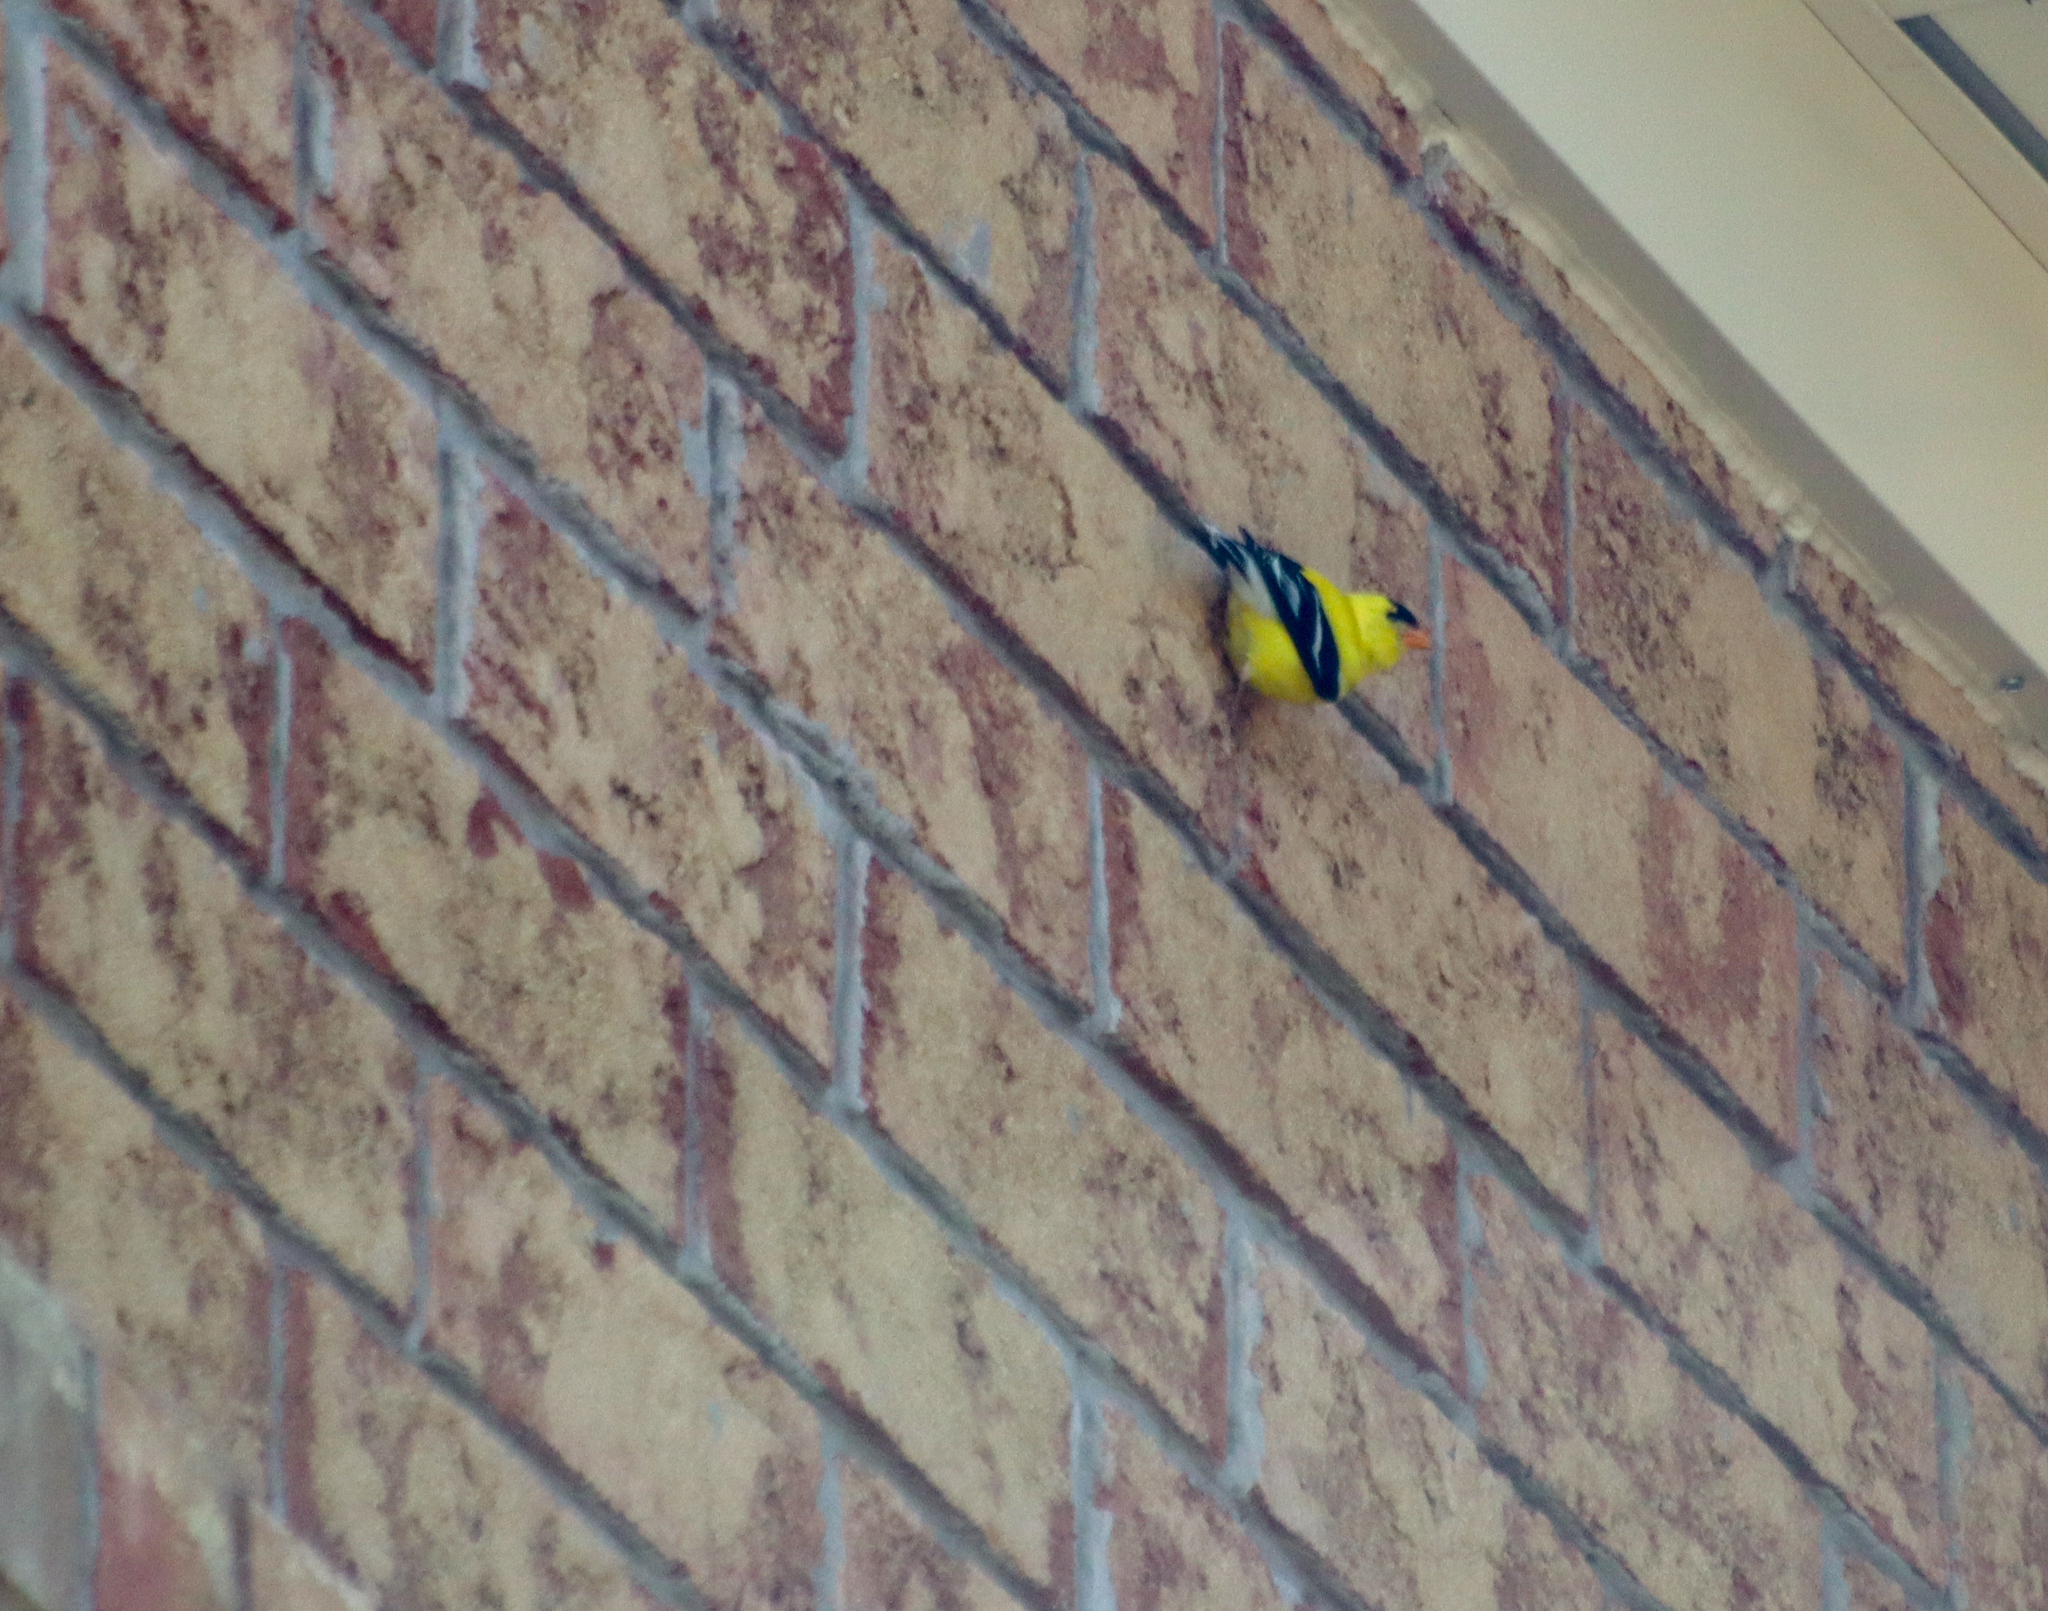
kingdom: Animalia
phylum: Chordata
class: Aves
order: Passeriformes
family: Fringillidae
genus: Spinus
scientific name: Spinus tristis
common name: American goldfinch
